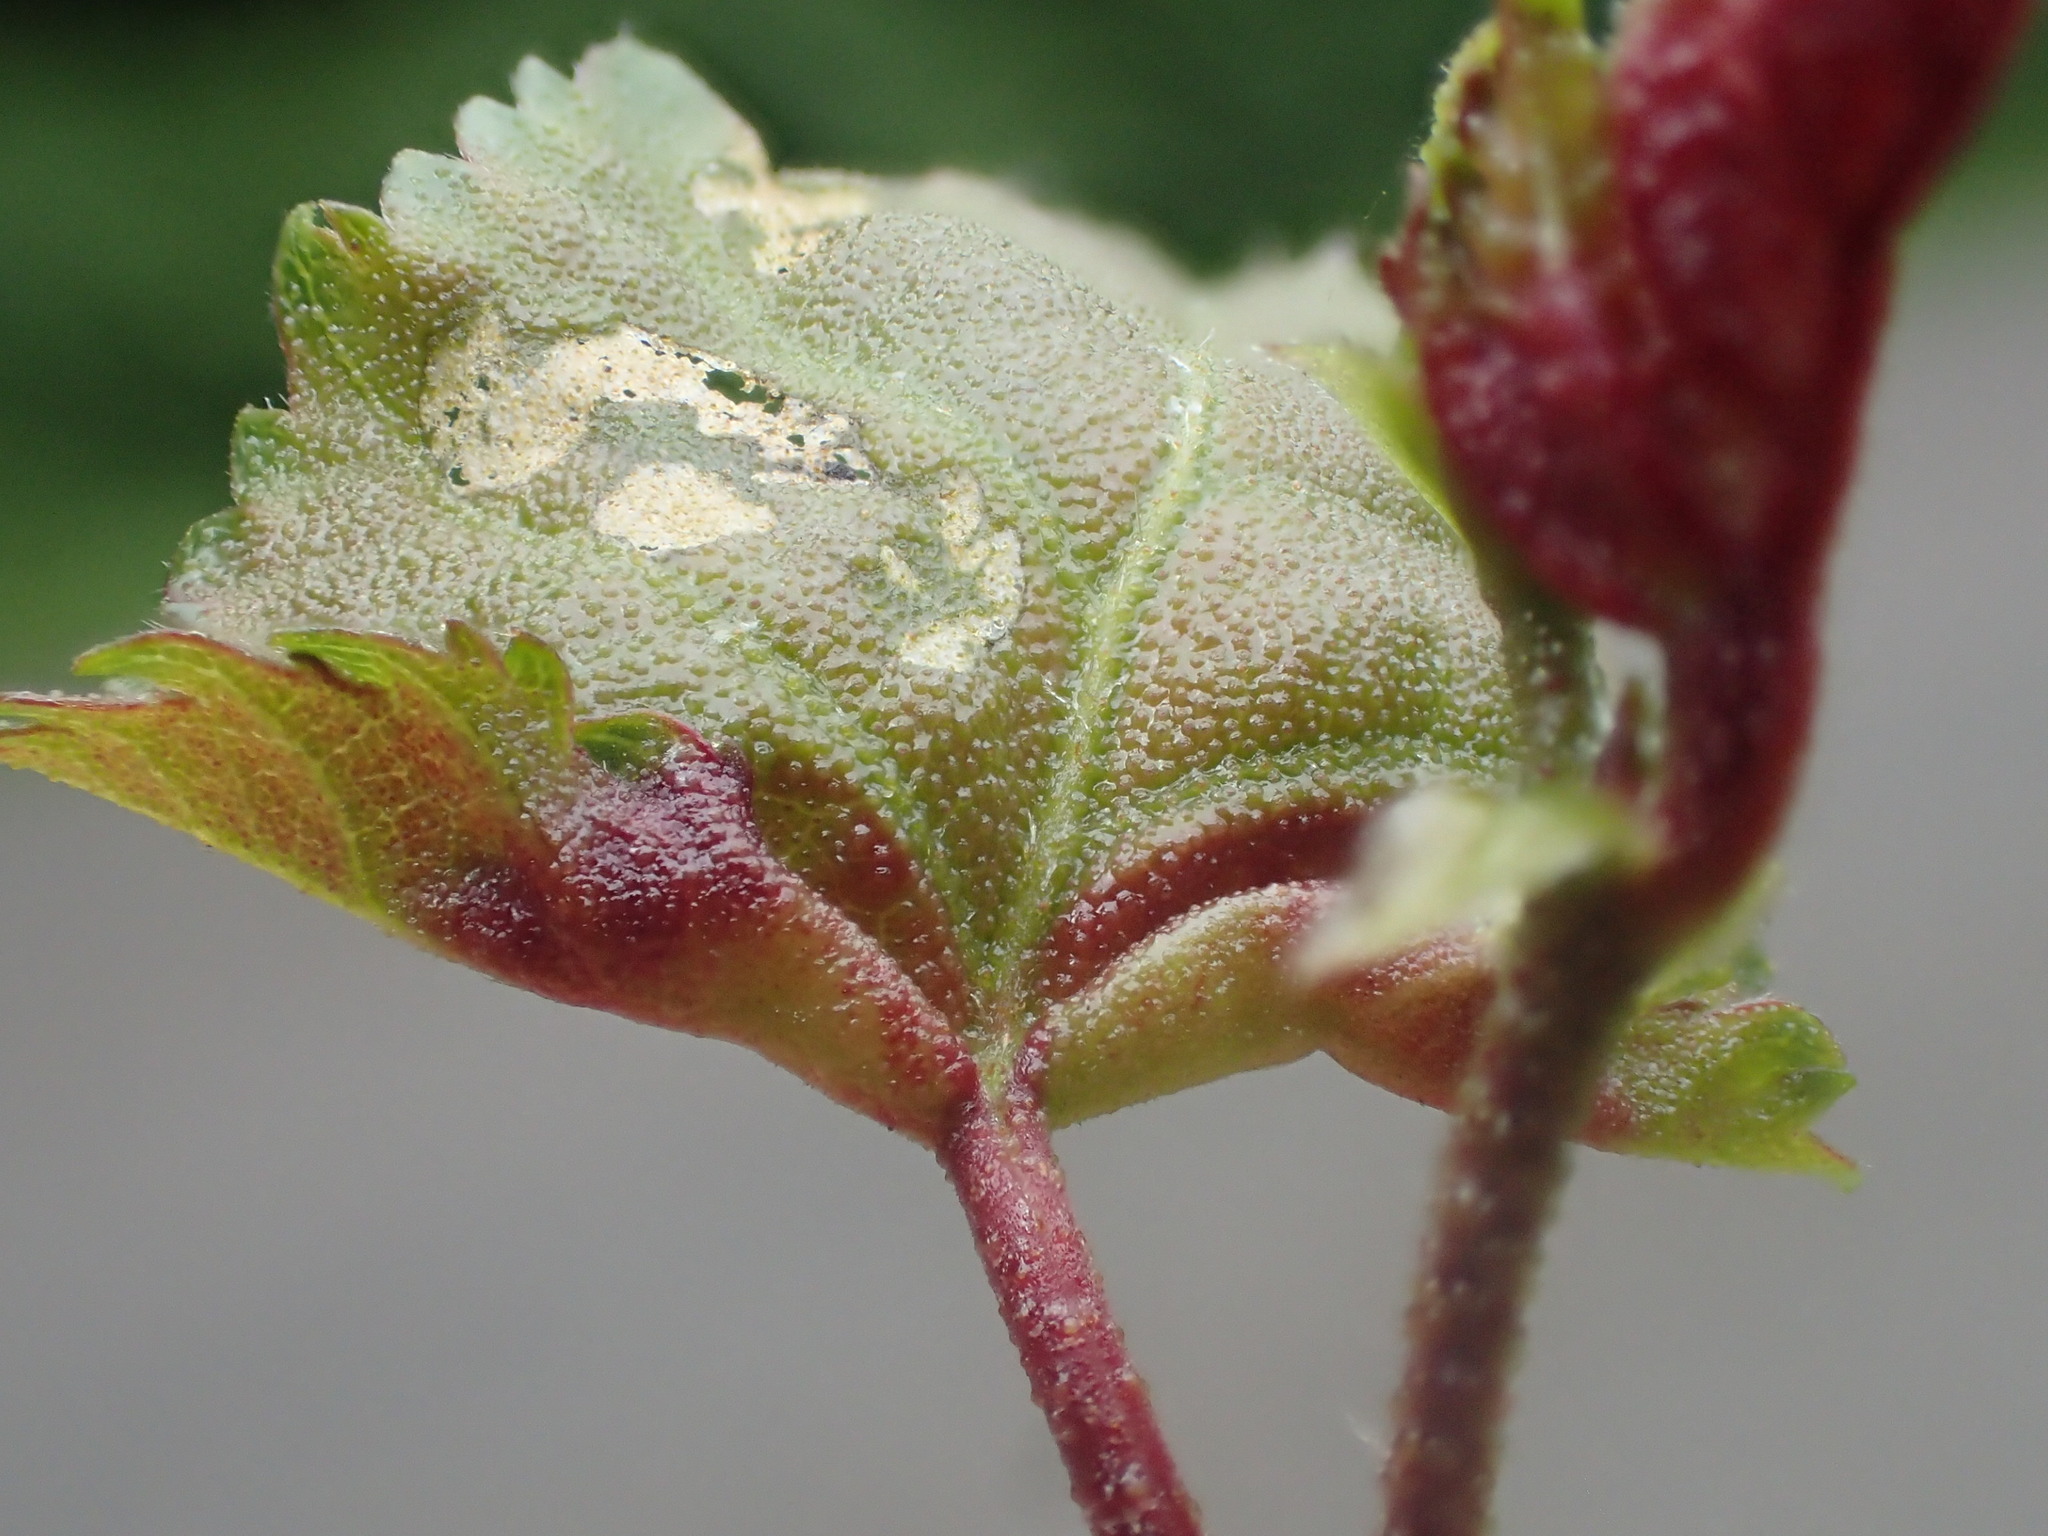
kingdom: Animalia
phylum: Arthropoda
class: Insecta
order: Diptera
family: Cecidomyiidae
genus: Resseliella
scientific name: Resseliella betulicola
